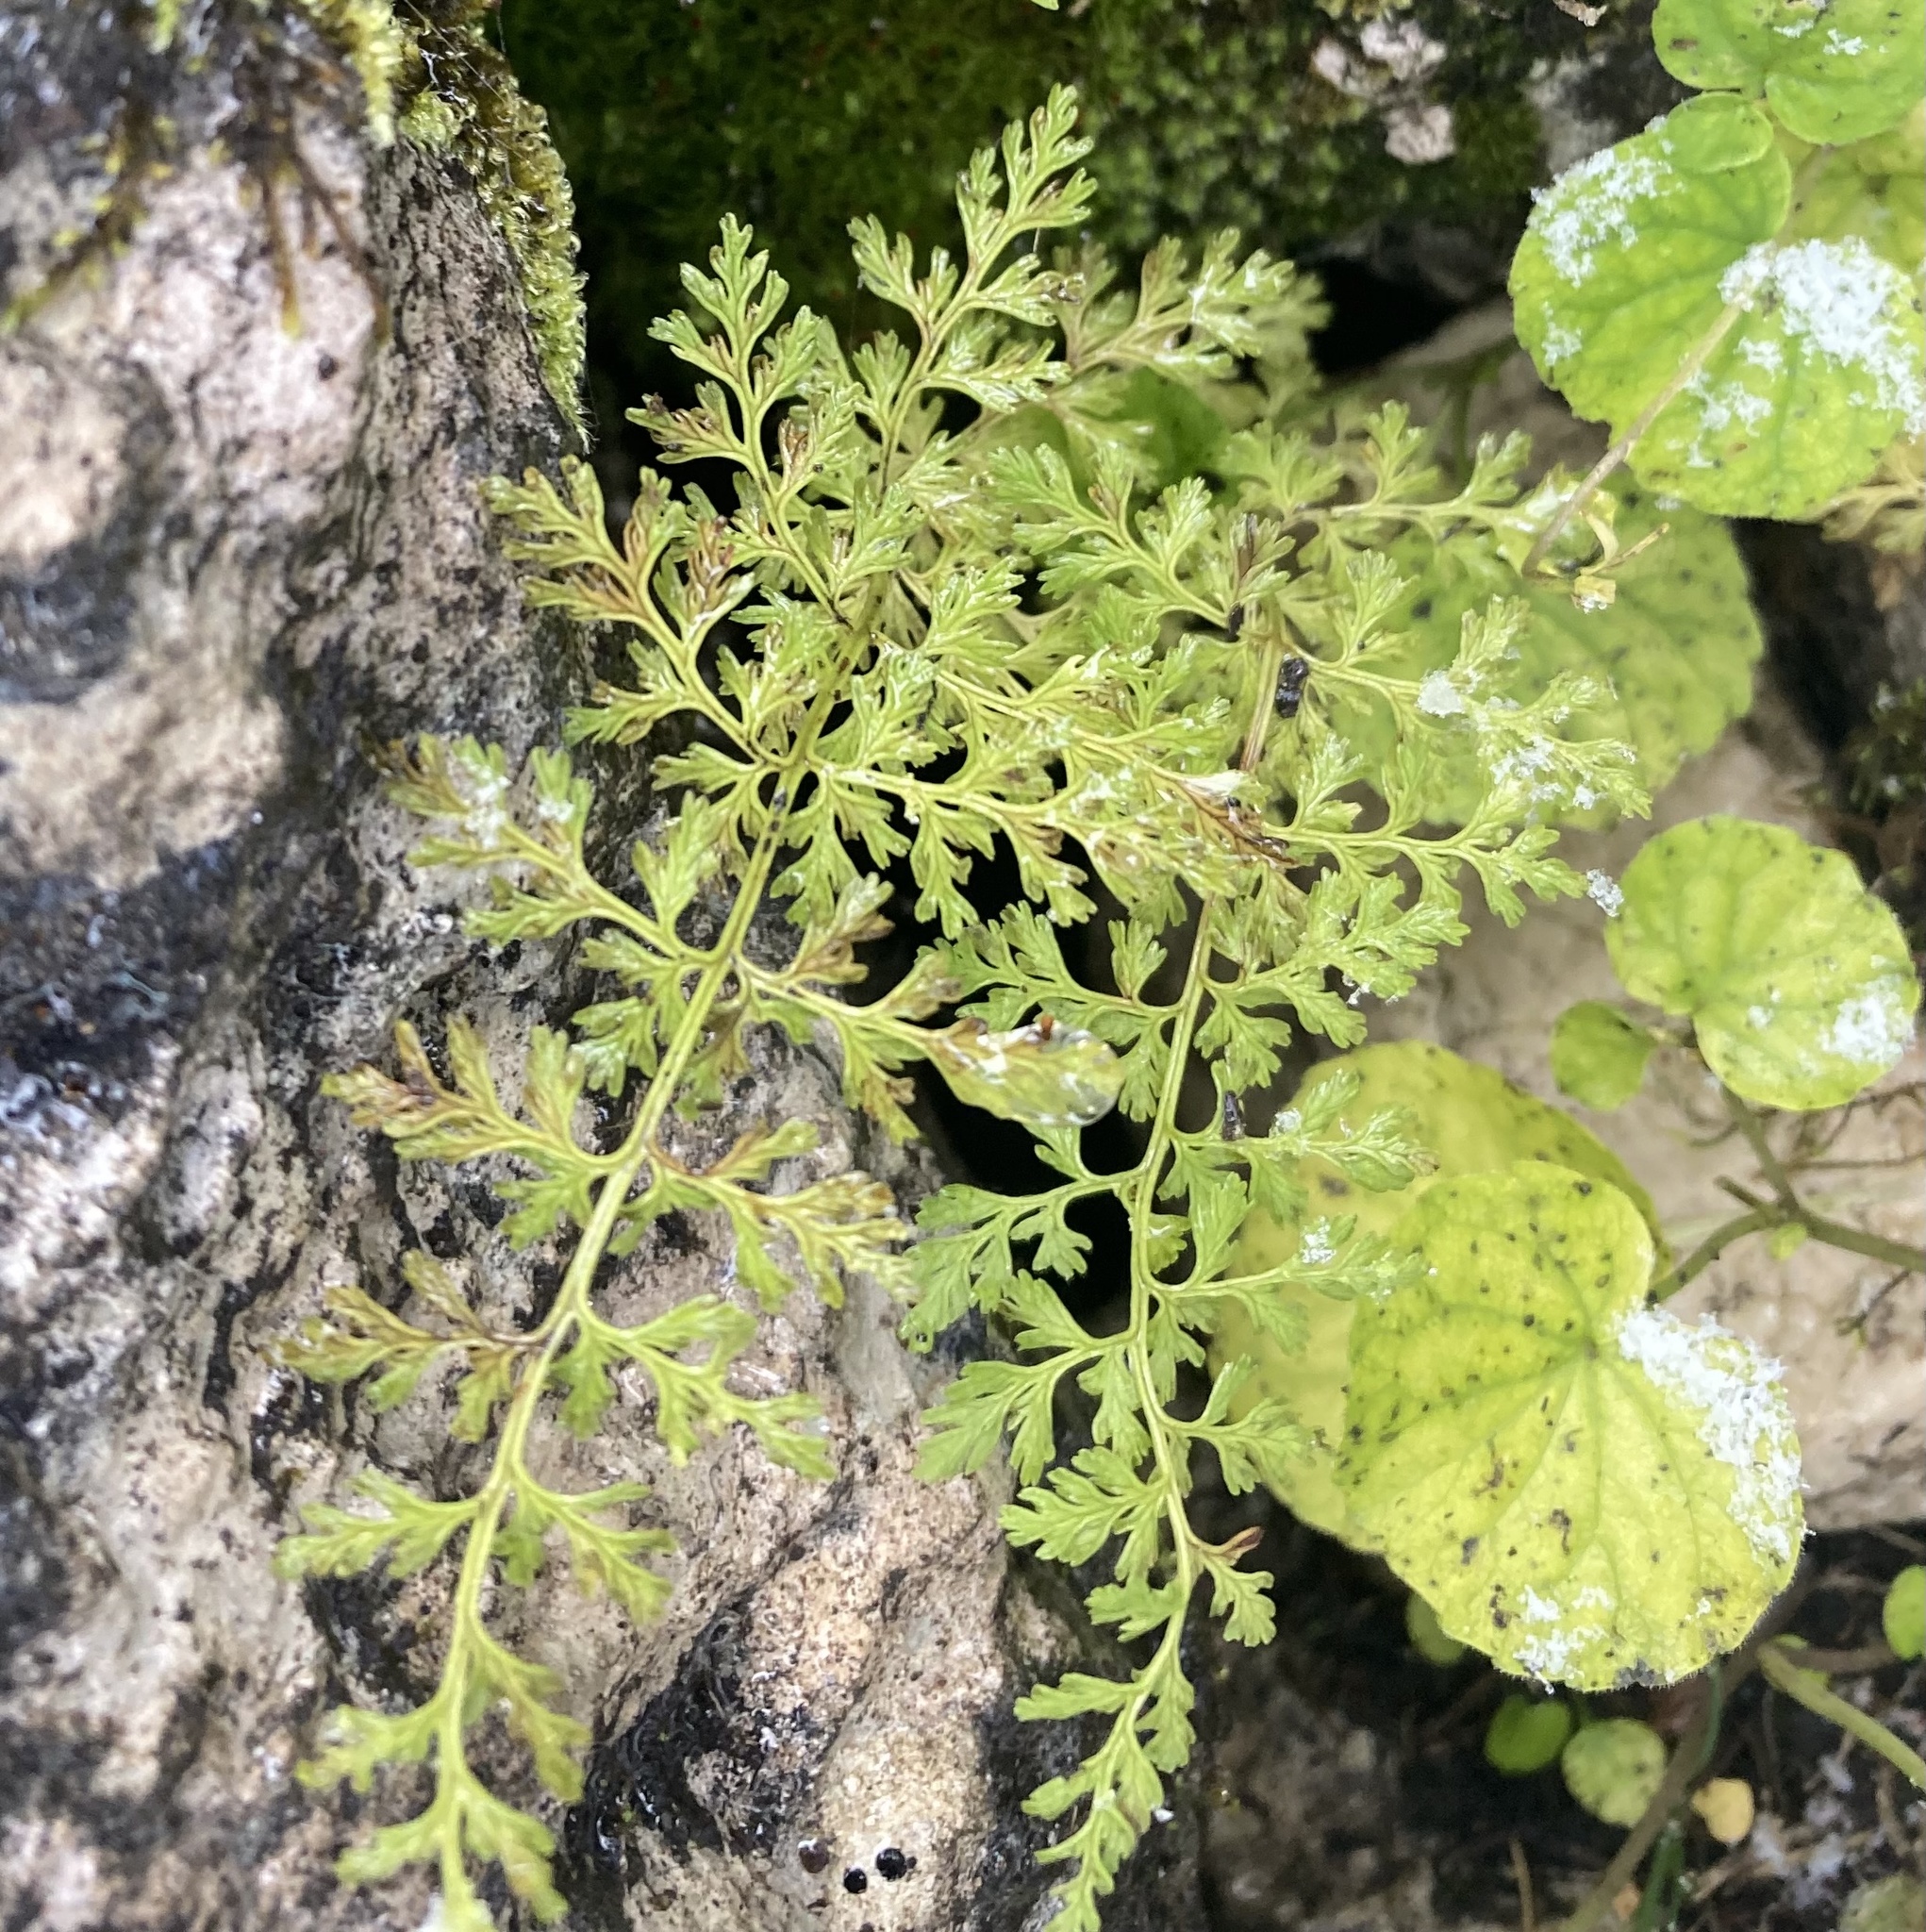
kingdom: Plantae
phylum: Tracheophyta
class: Polypodiopsida
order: Polypodiales
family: Pteridaceae
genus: Cryptogramma
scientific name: Cryptogramma crispa
